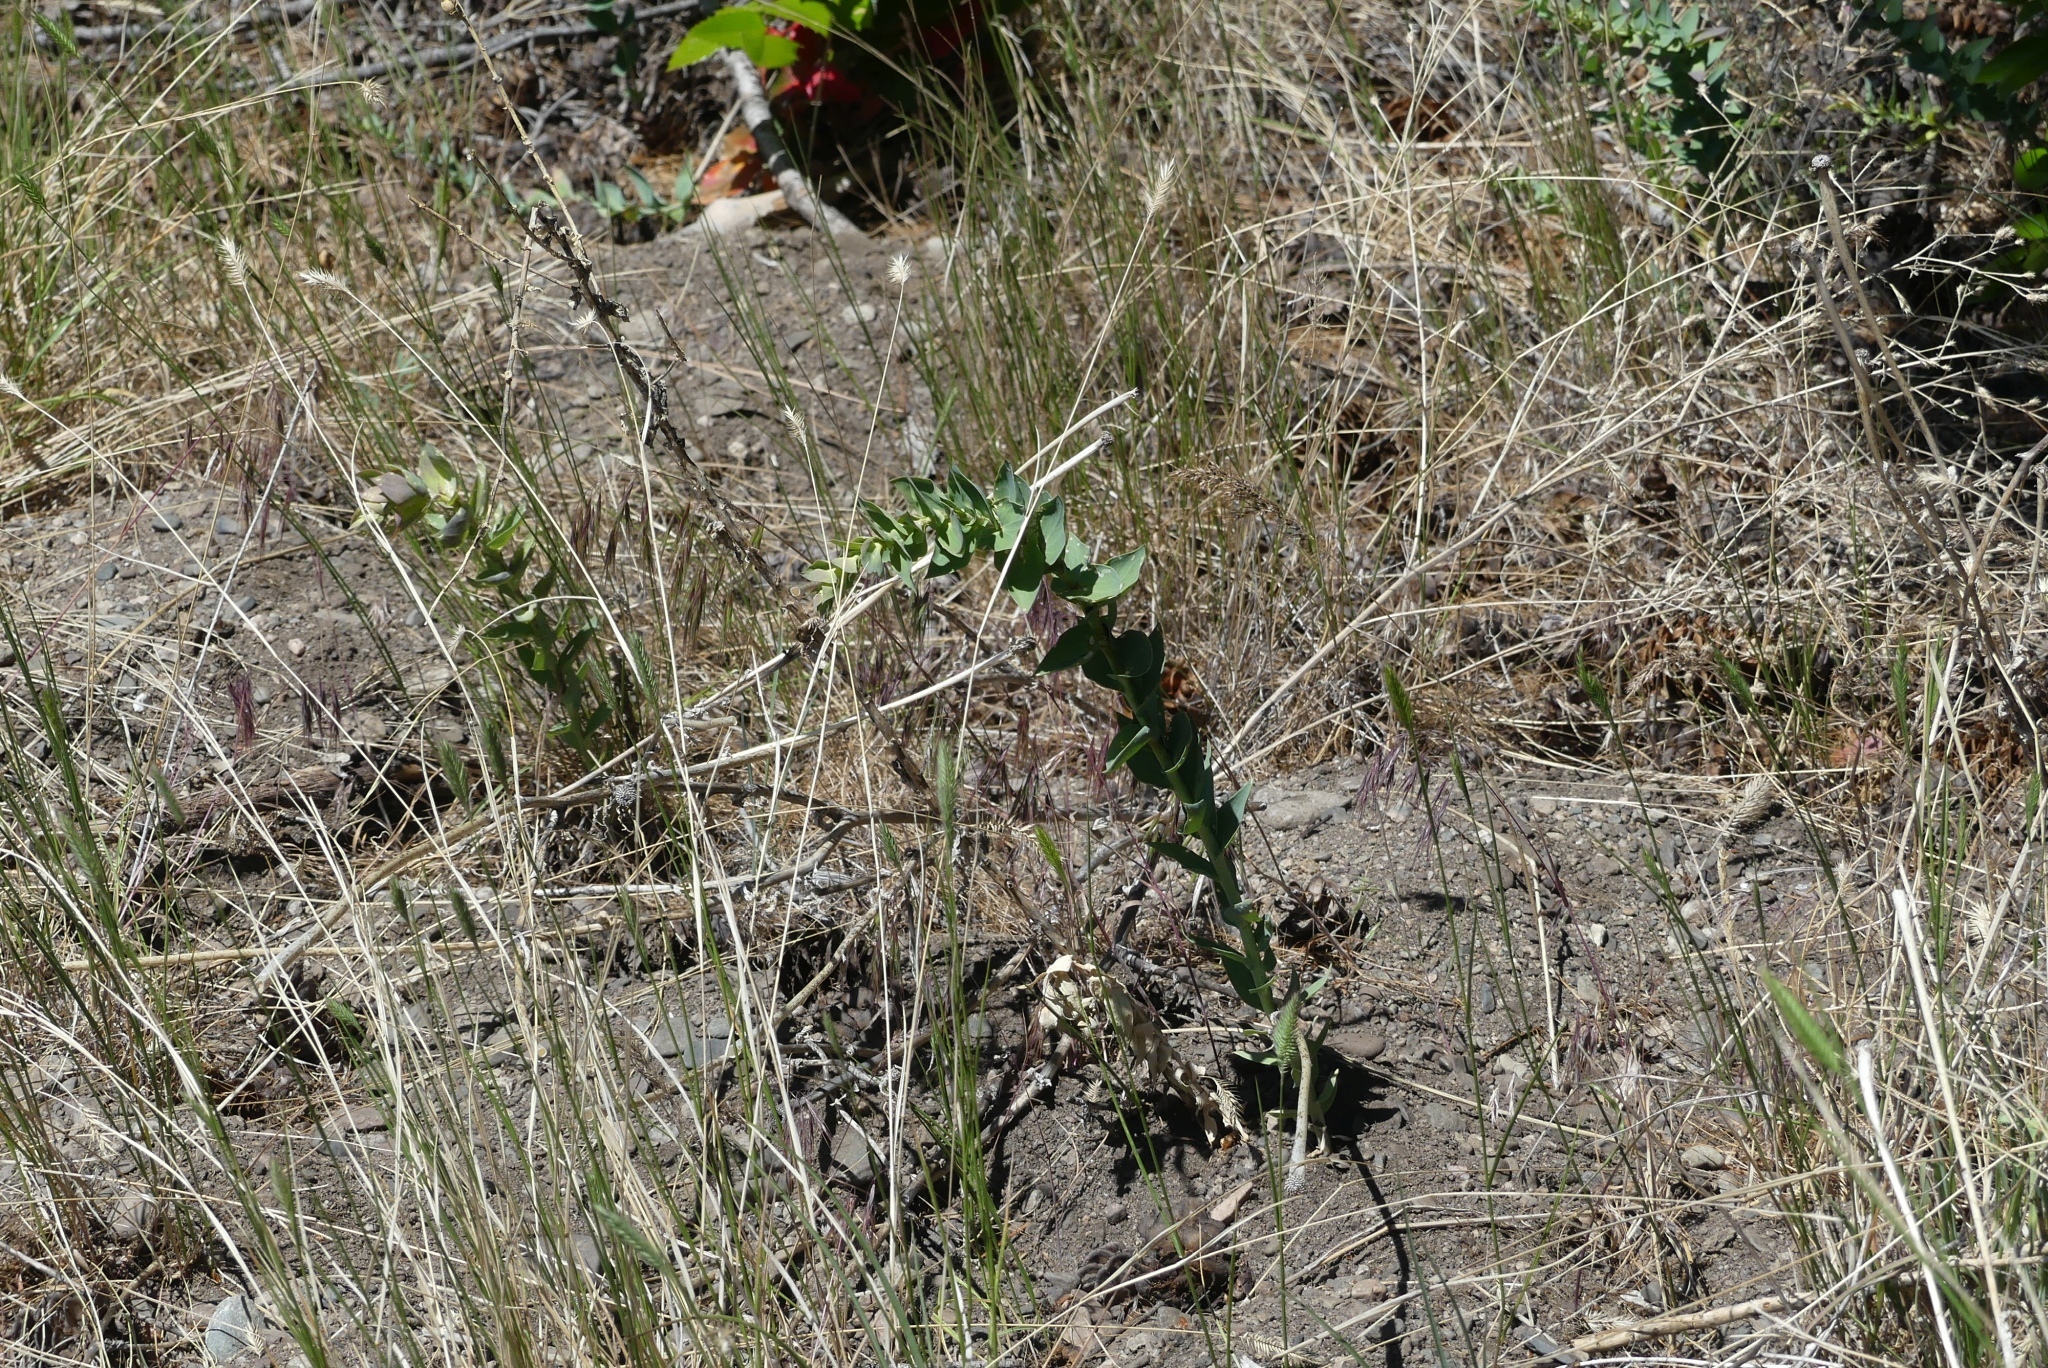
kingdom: Plantae
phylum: Tracheophyta
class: Magnoliopsida
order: Lamiales
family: Plantaginaceae
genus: Linaria
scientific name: Linaria dalmatica
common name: Dalmatian toadflax
